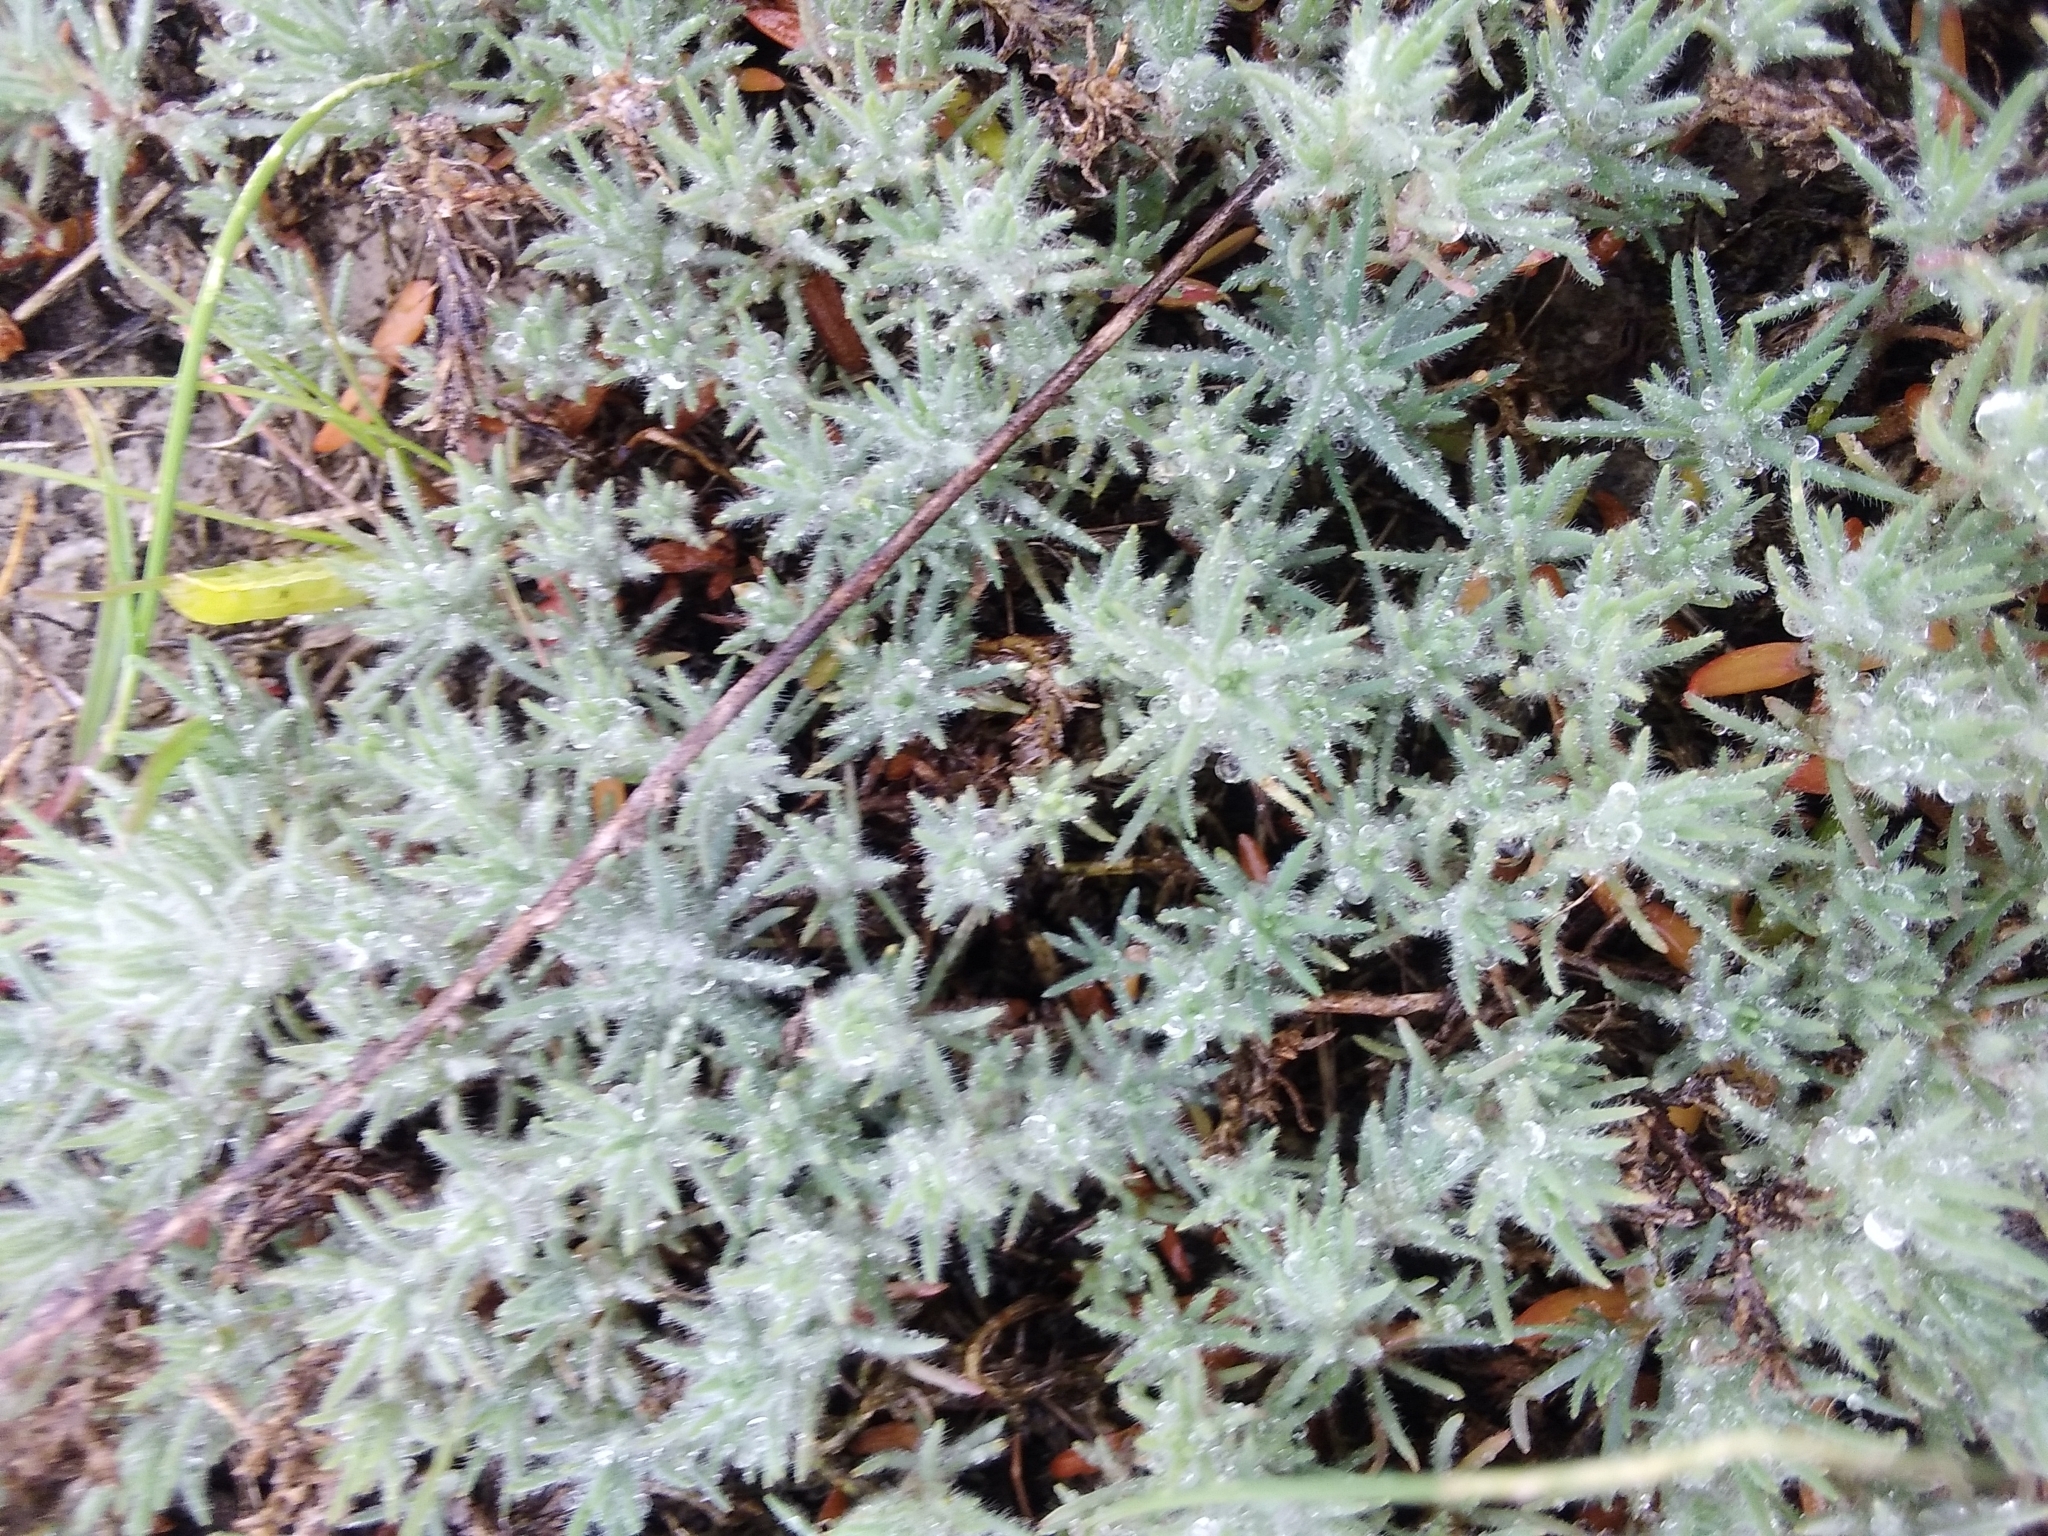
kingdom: Plantae
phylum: Tracheophyta
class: Magnoliopsida
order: Caryophyllales
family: Amaranthaceae
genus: Camphorosma
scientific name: Camphorosma annua
